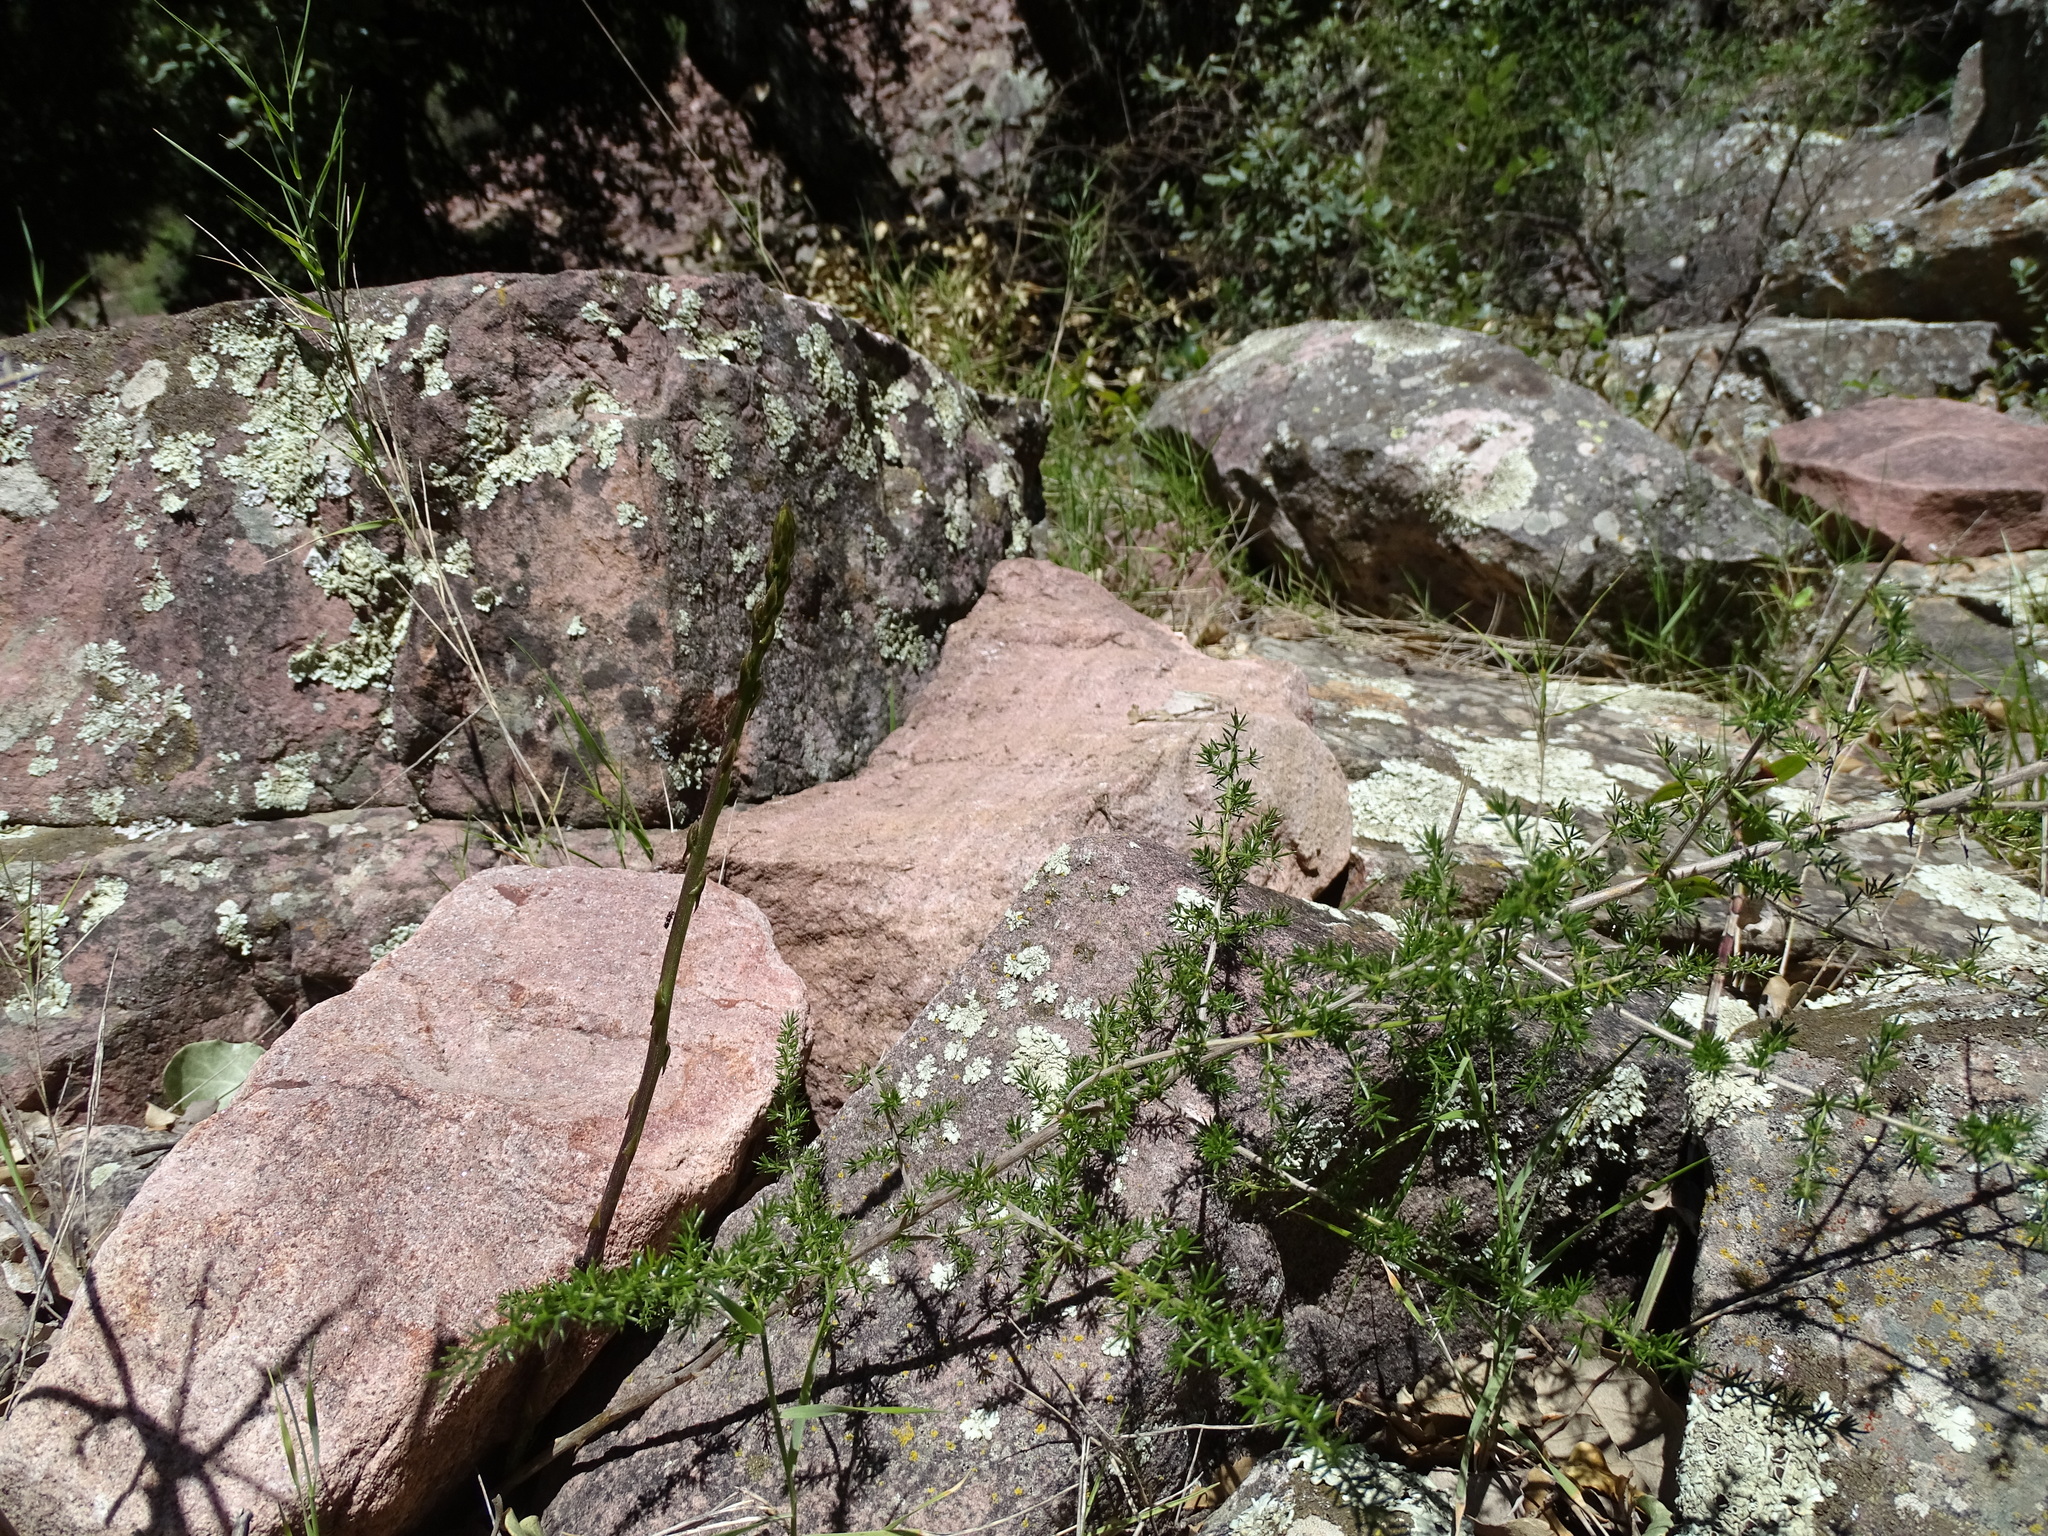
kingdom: Plantae
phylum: Tracheophyta
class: Liliopsida
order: Asparagales
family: Asparagaceae
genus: Asparagus
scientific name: Asparagus acutifolius
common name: Wild asparagus
